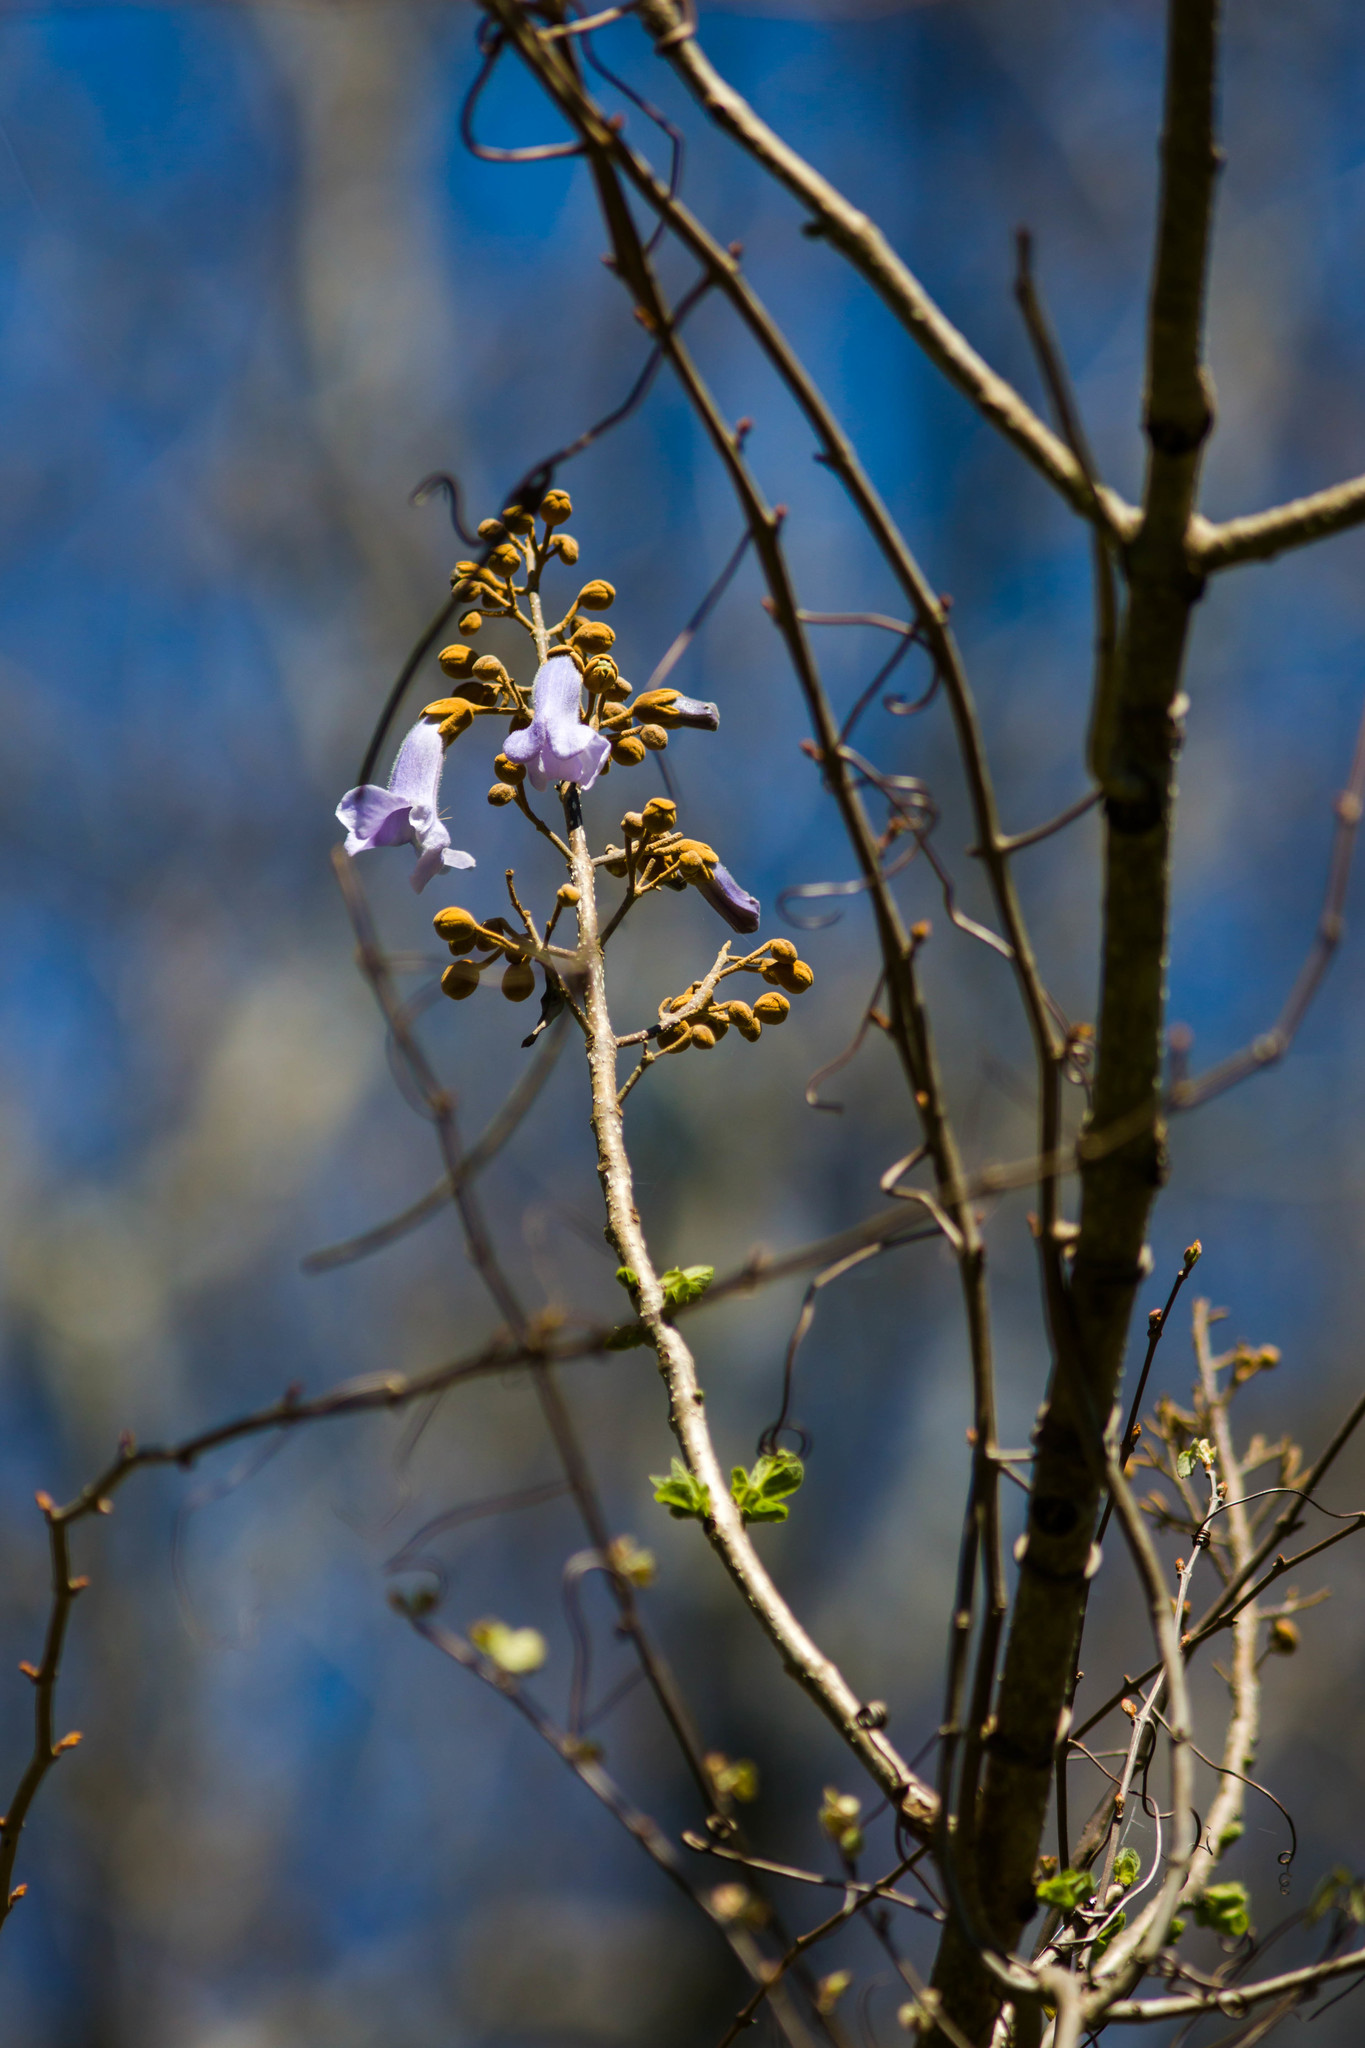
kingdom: Plantae
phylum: Tracheophyta
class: Magnoliopsida
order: Lamiales
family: Paulowniaceae
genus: Paulownia
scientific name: Paulownia tomentosa
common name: Foxglove-tree
